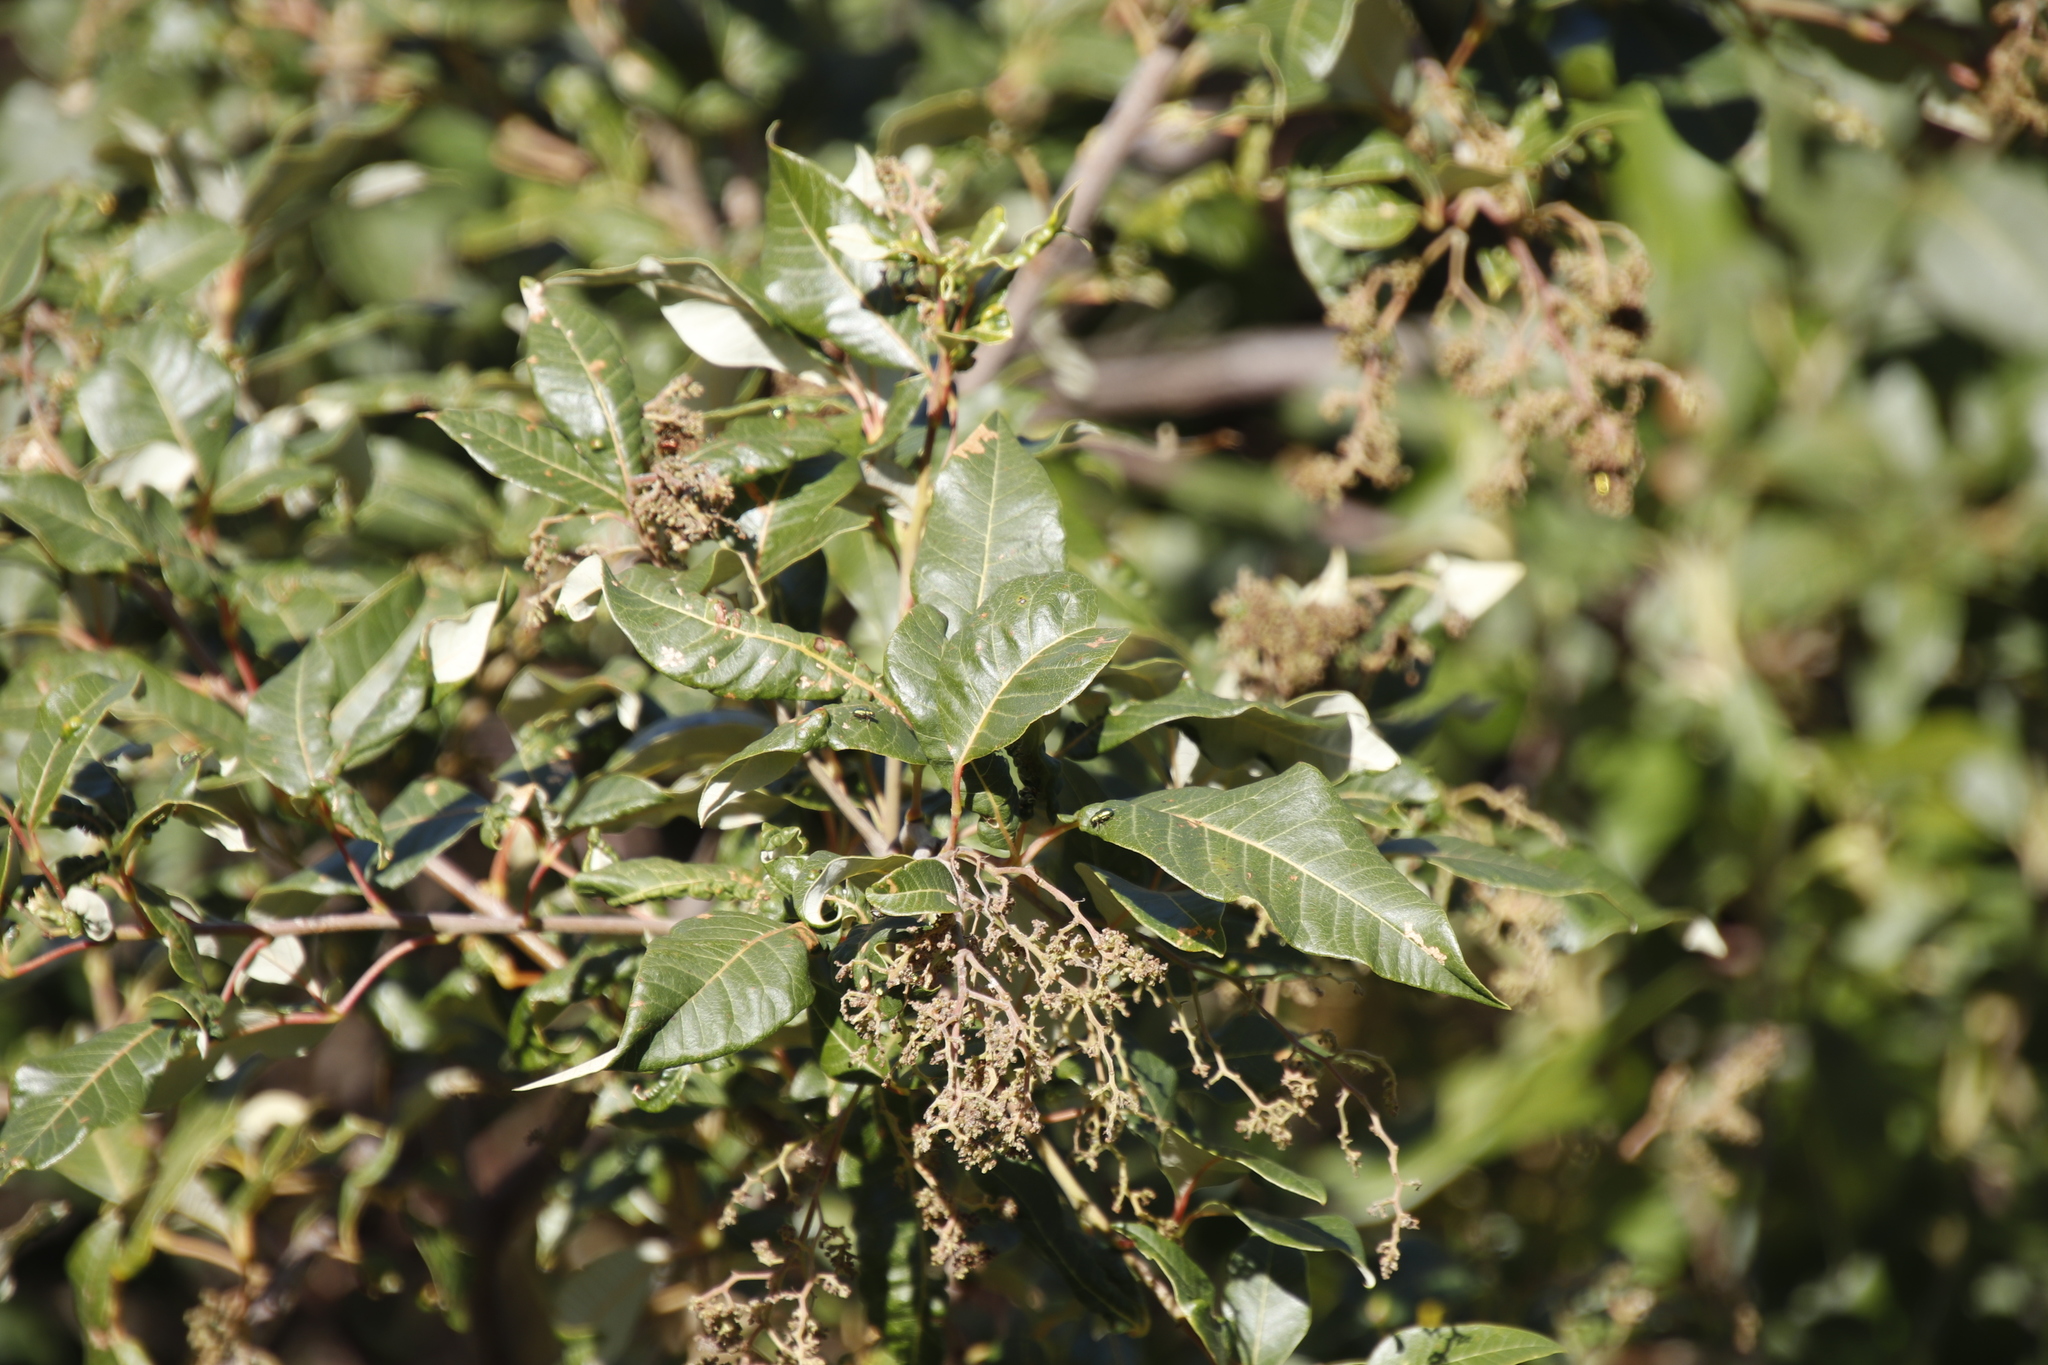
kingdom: Plantae
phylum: Tracheophyta
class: Magnoliopsida
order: Sapindales
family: Anacardiaceae
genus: Searsia
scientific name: Searsia tomentosa
